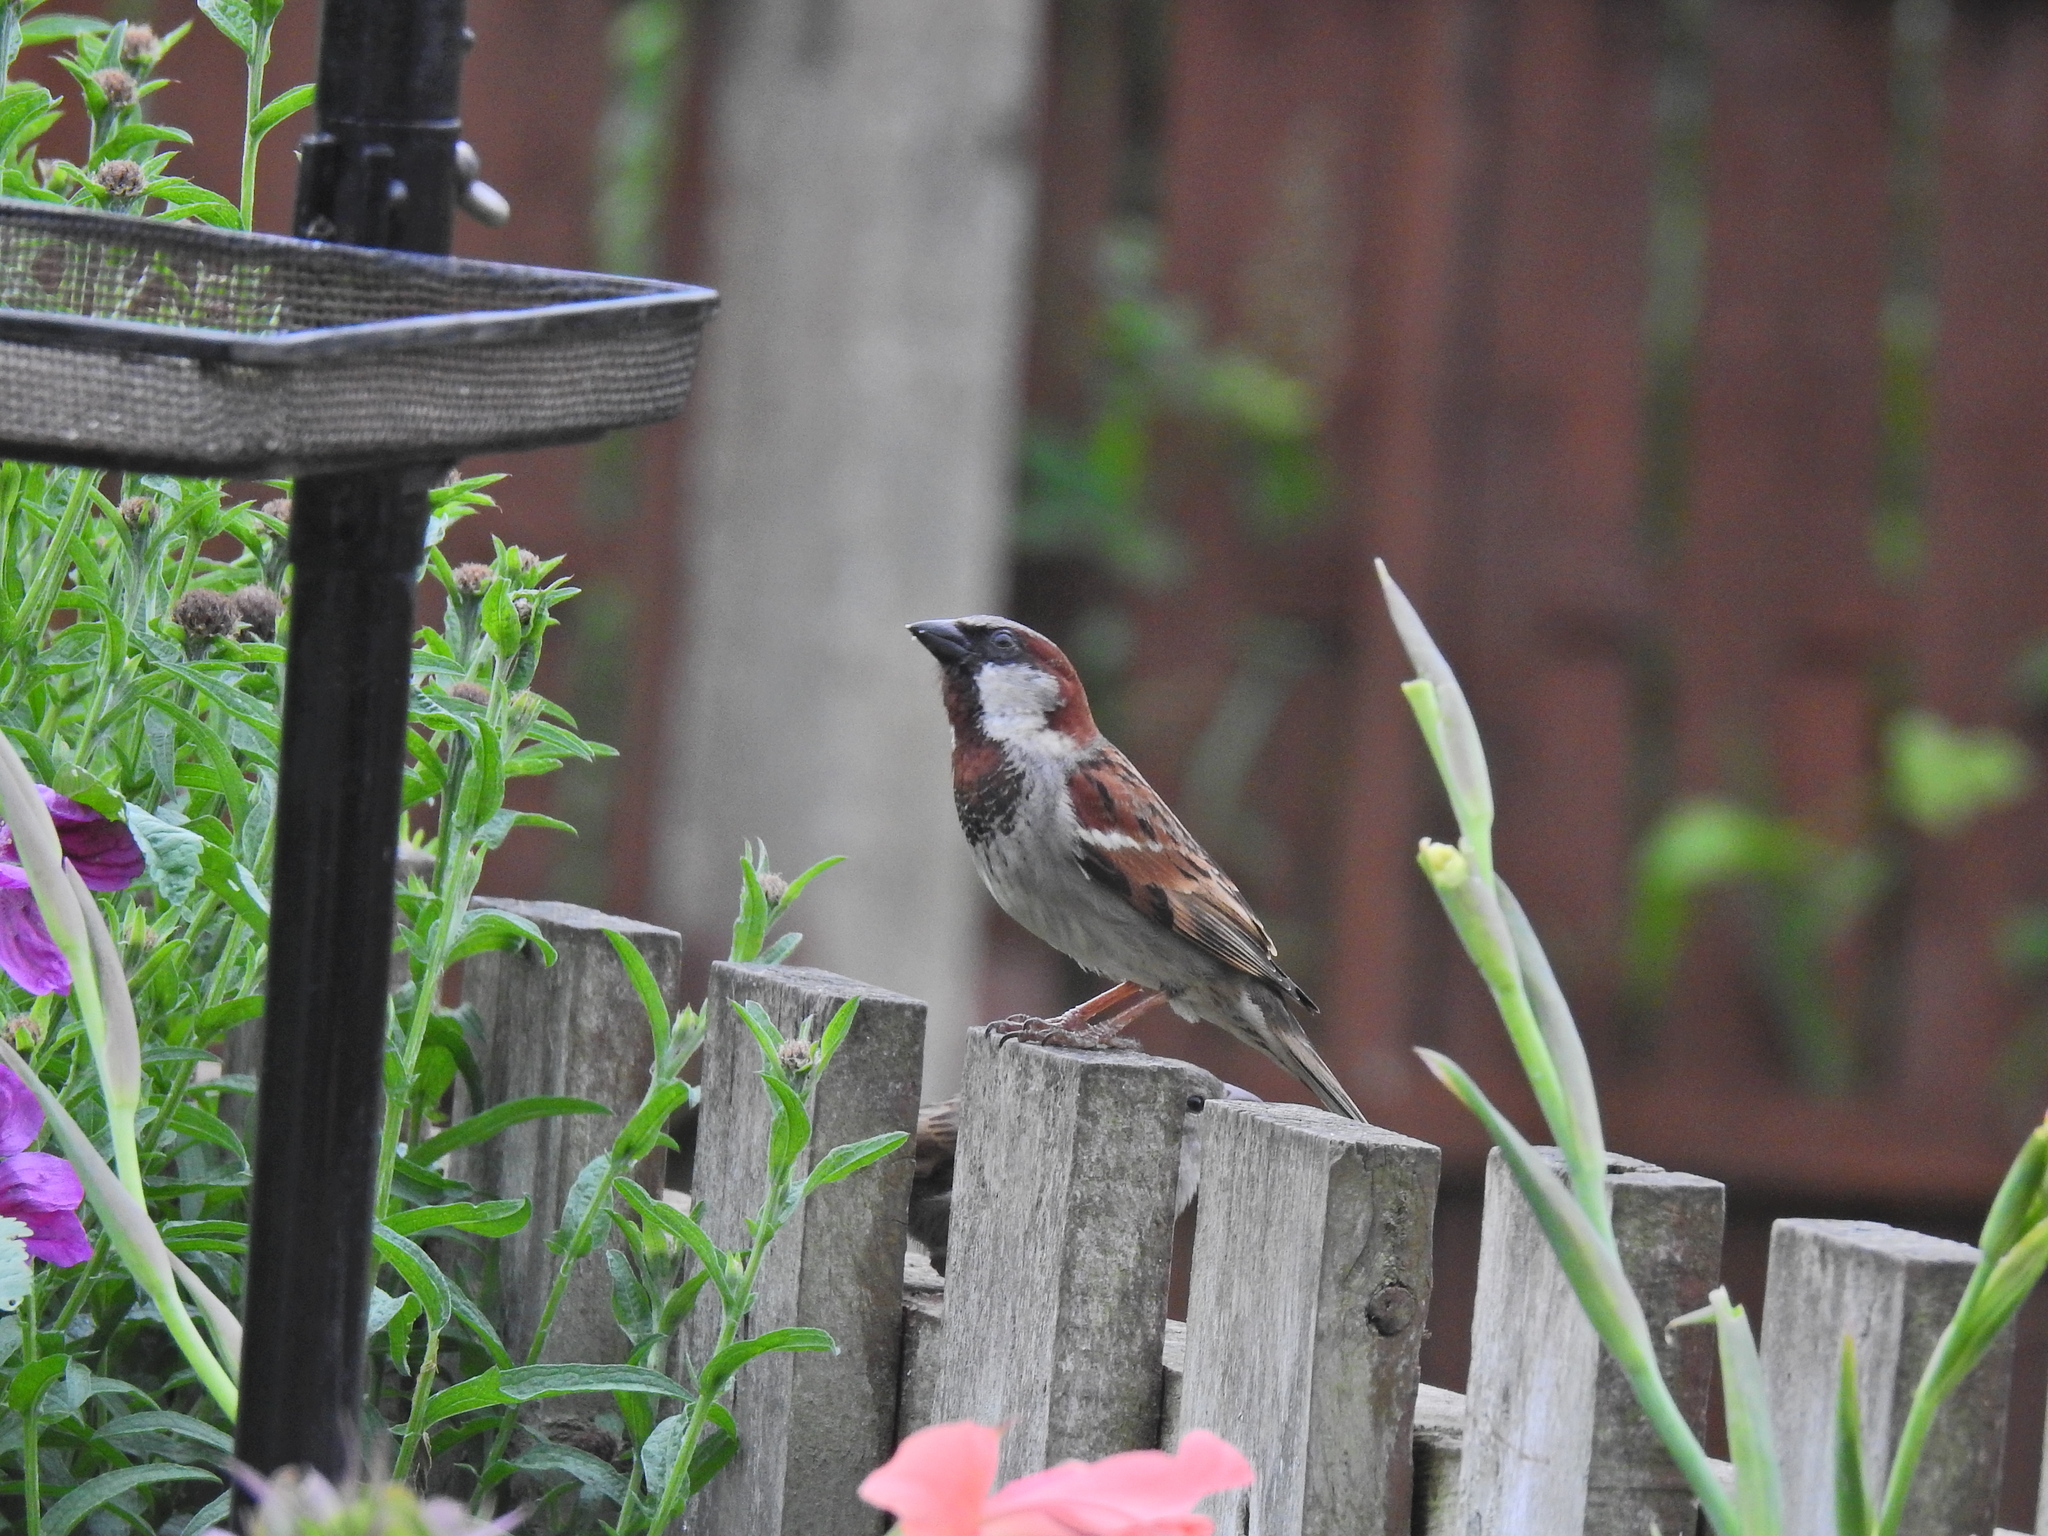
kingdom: Animalia
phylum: Chordata
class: Aves
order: Passeriformes
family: Passeridae
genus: Passer
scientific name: Passer domesticus
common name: House sparrow
